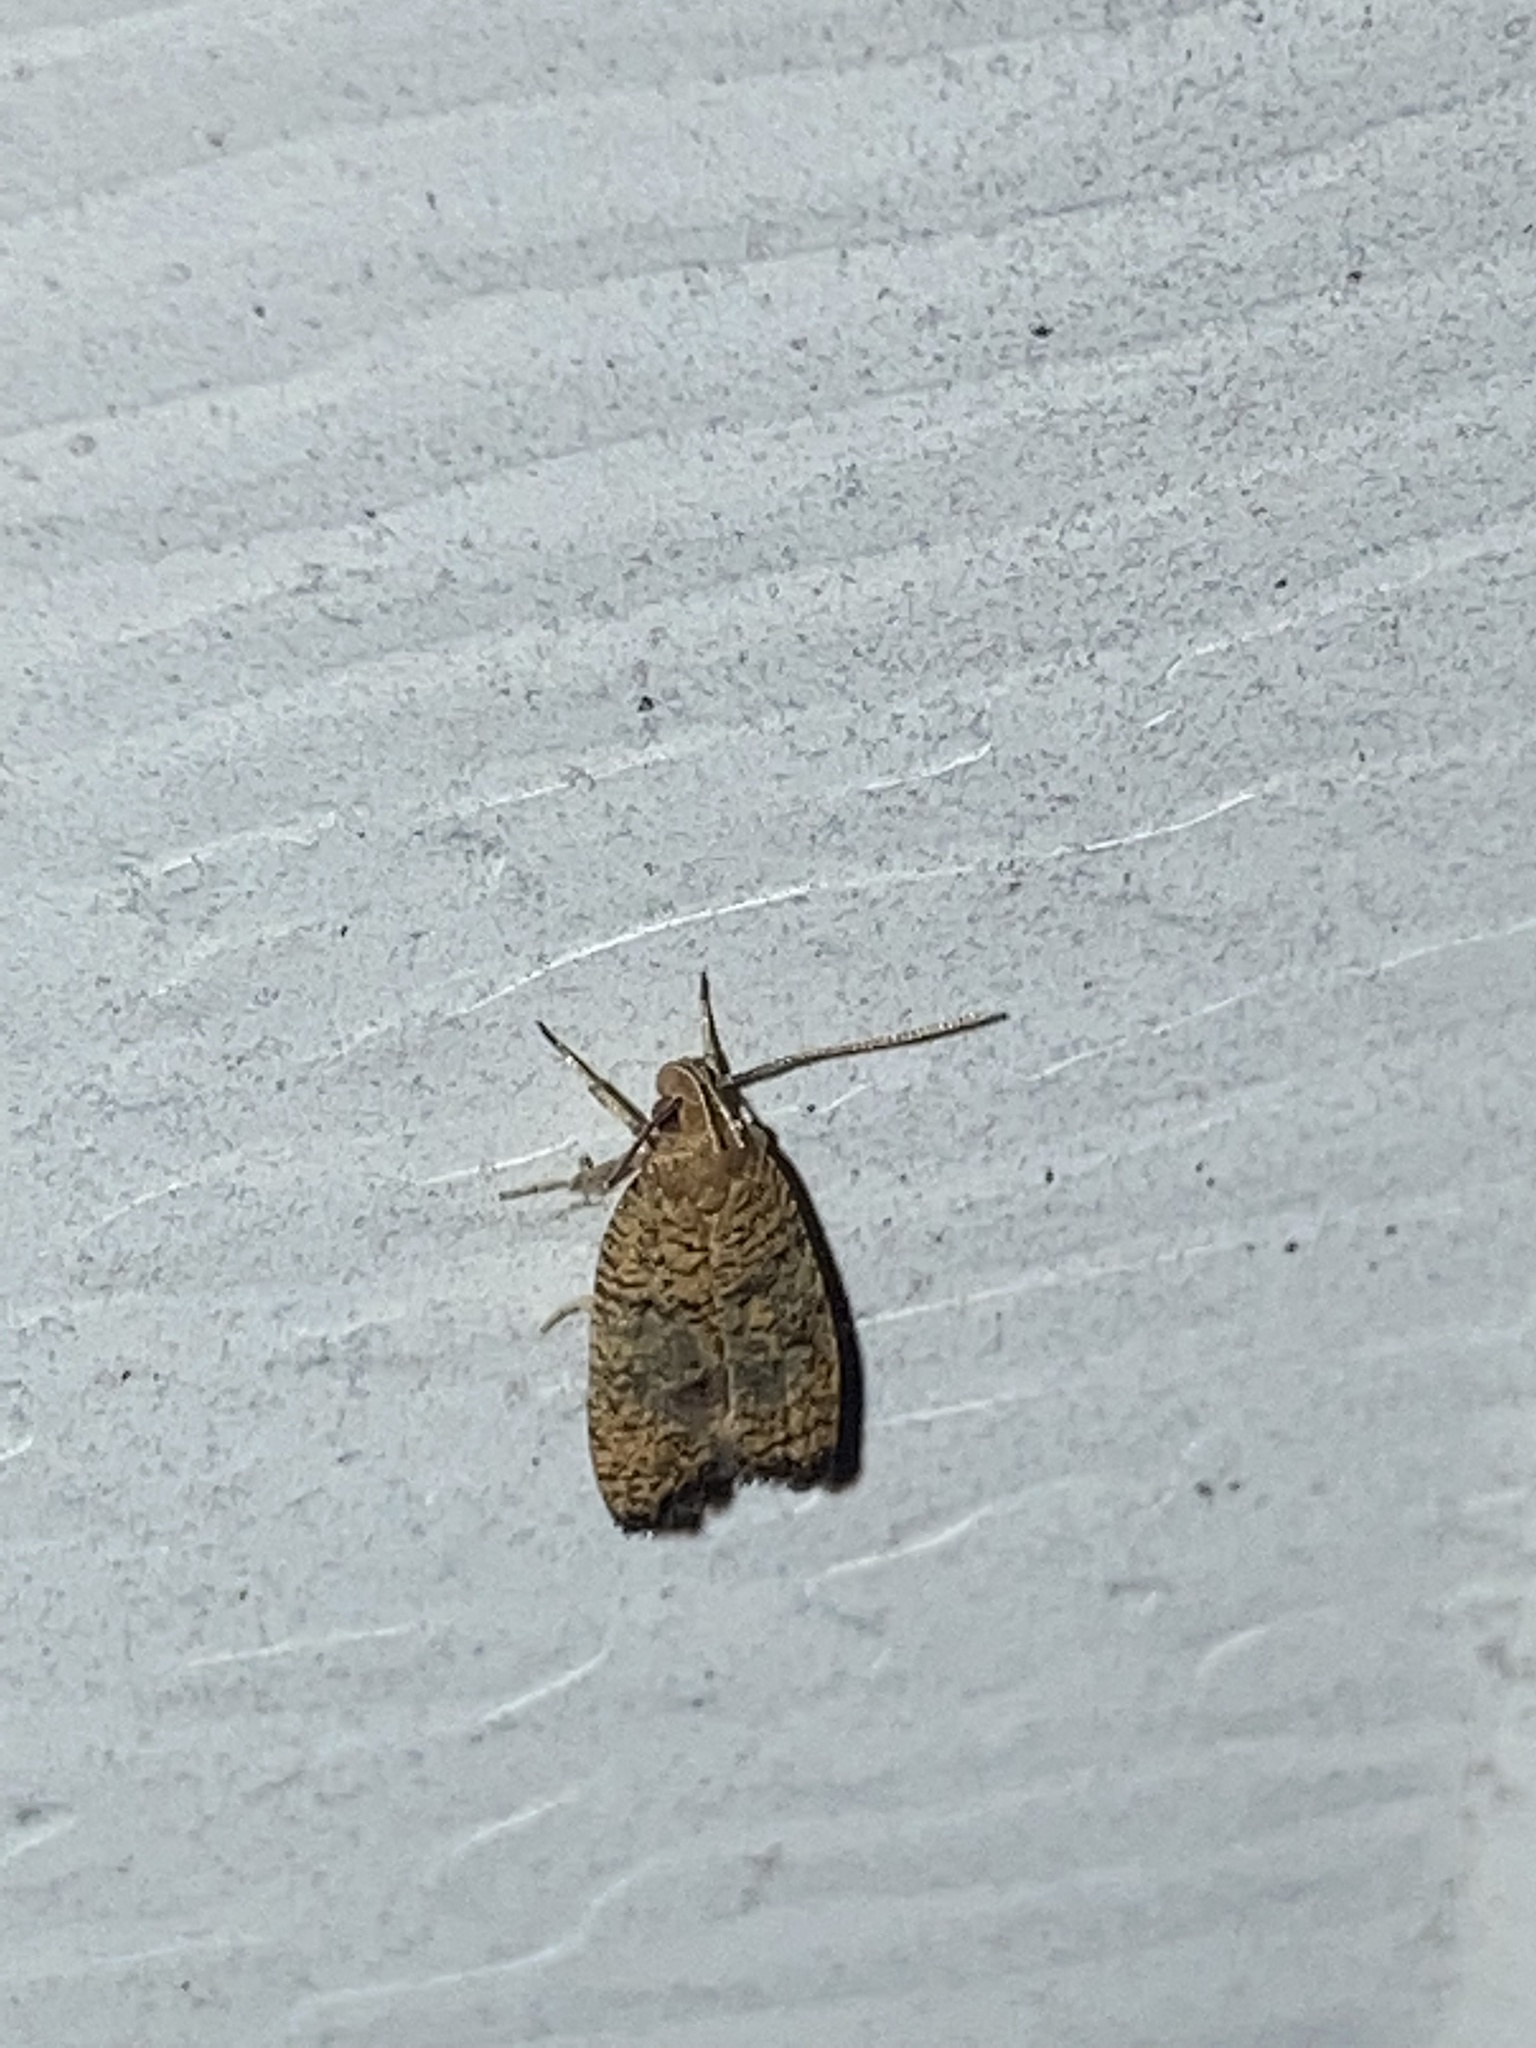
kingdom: Animalia
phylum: Arthropoda
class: Insecta
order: Lepidoptera
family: Depressariidae
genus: Psilocorsis
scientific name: Psilocorsis quercicella
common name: Oak leaftier moth
